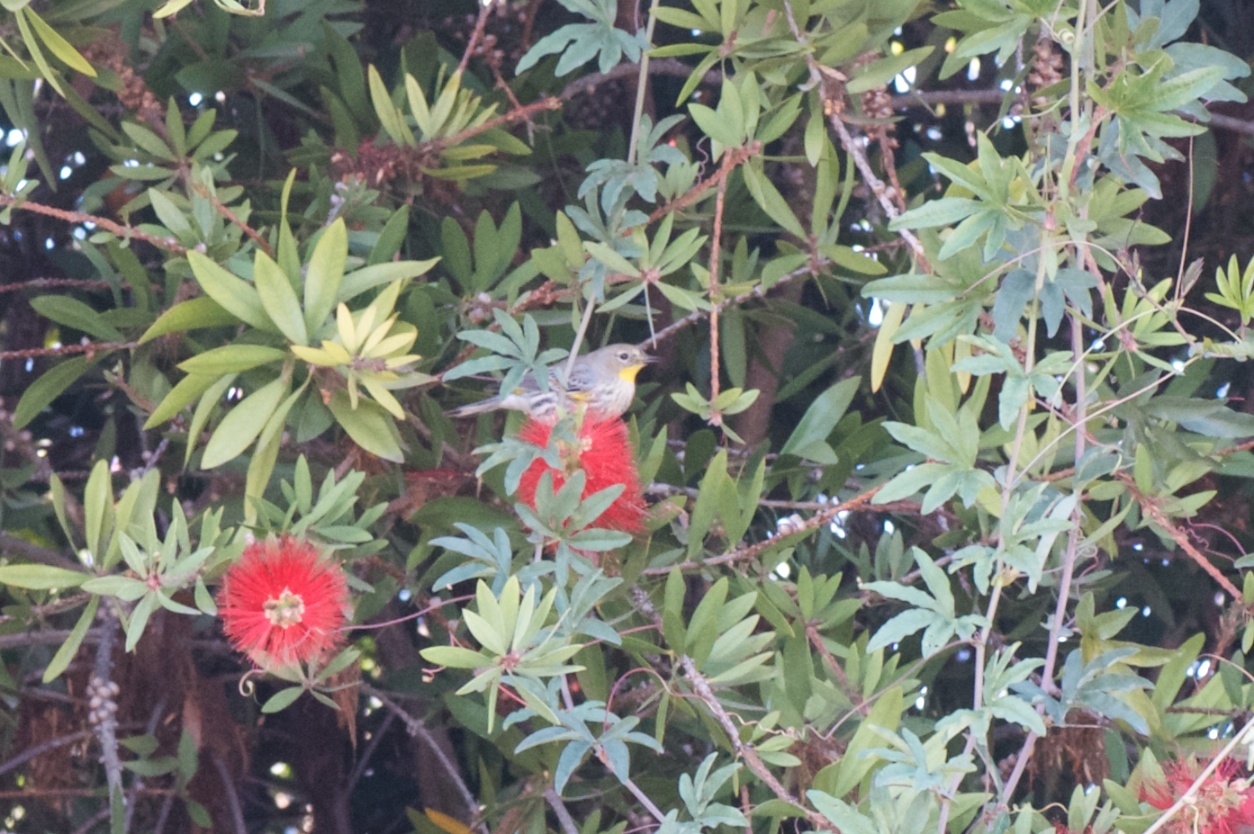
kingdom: Animalia
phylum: Chordata
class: Aves
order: Passeriformes
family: Parulidae
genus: Setophaga
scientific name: Setophaga coronata
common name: Myrtle warbler
